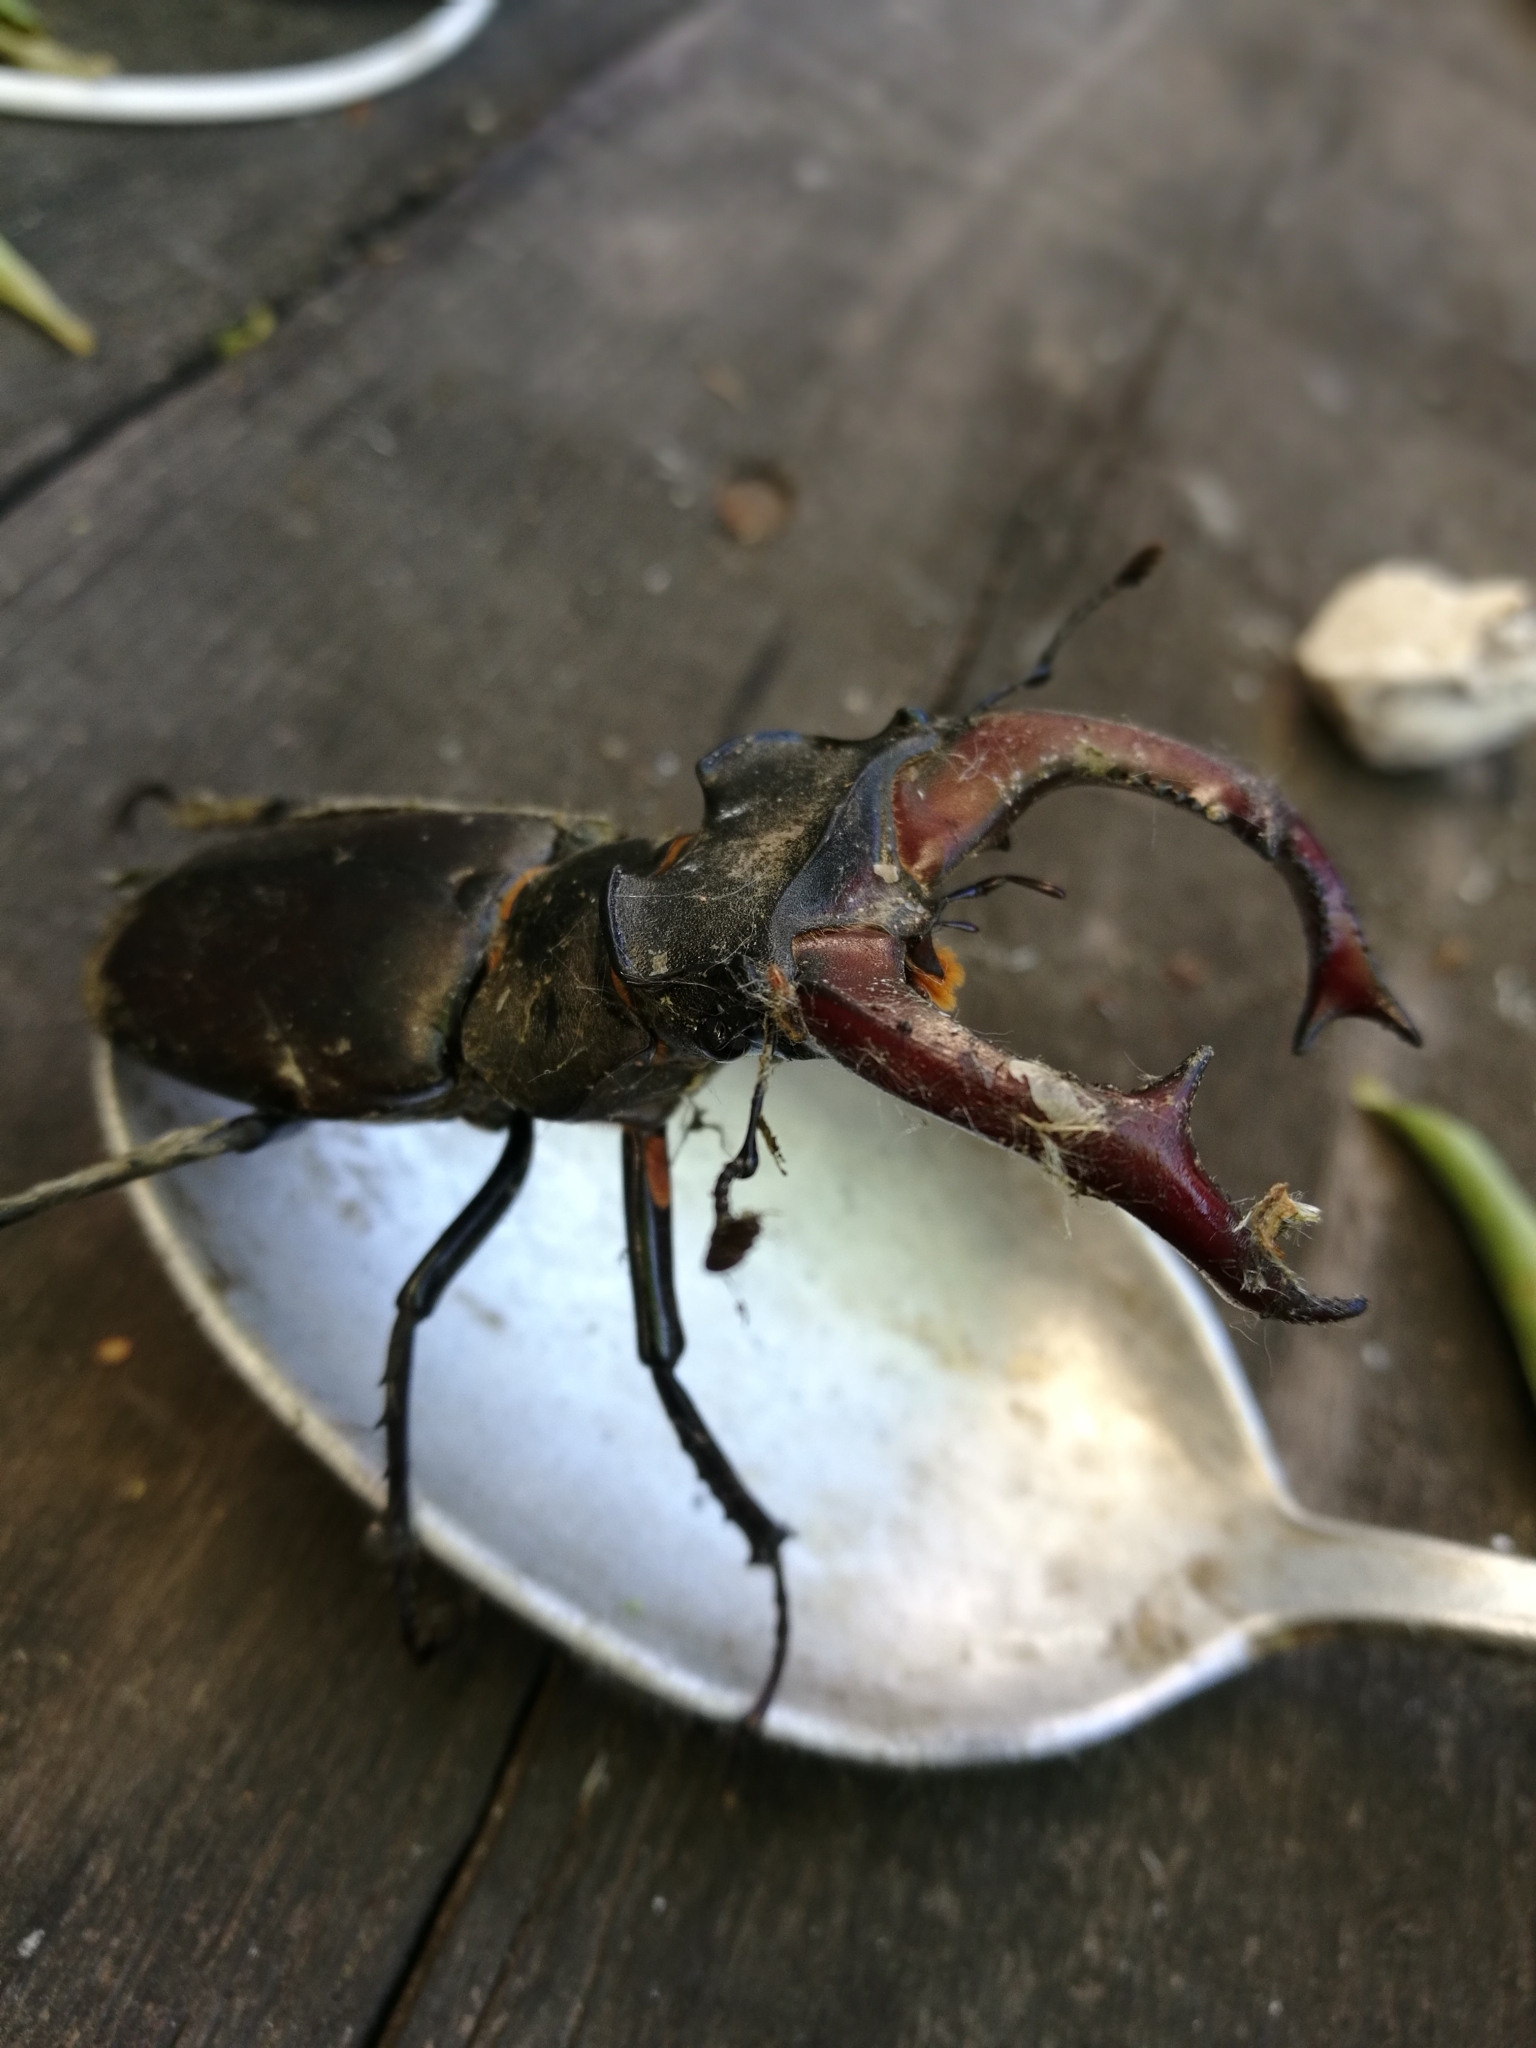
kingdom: Animalia
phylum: Arthropoda
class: Insecta
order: Coleoptera
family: Lucanidae
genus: Lucanus
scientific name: Lucanus cervus
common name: Stag beetle
